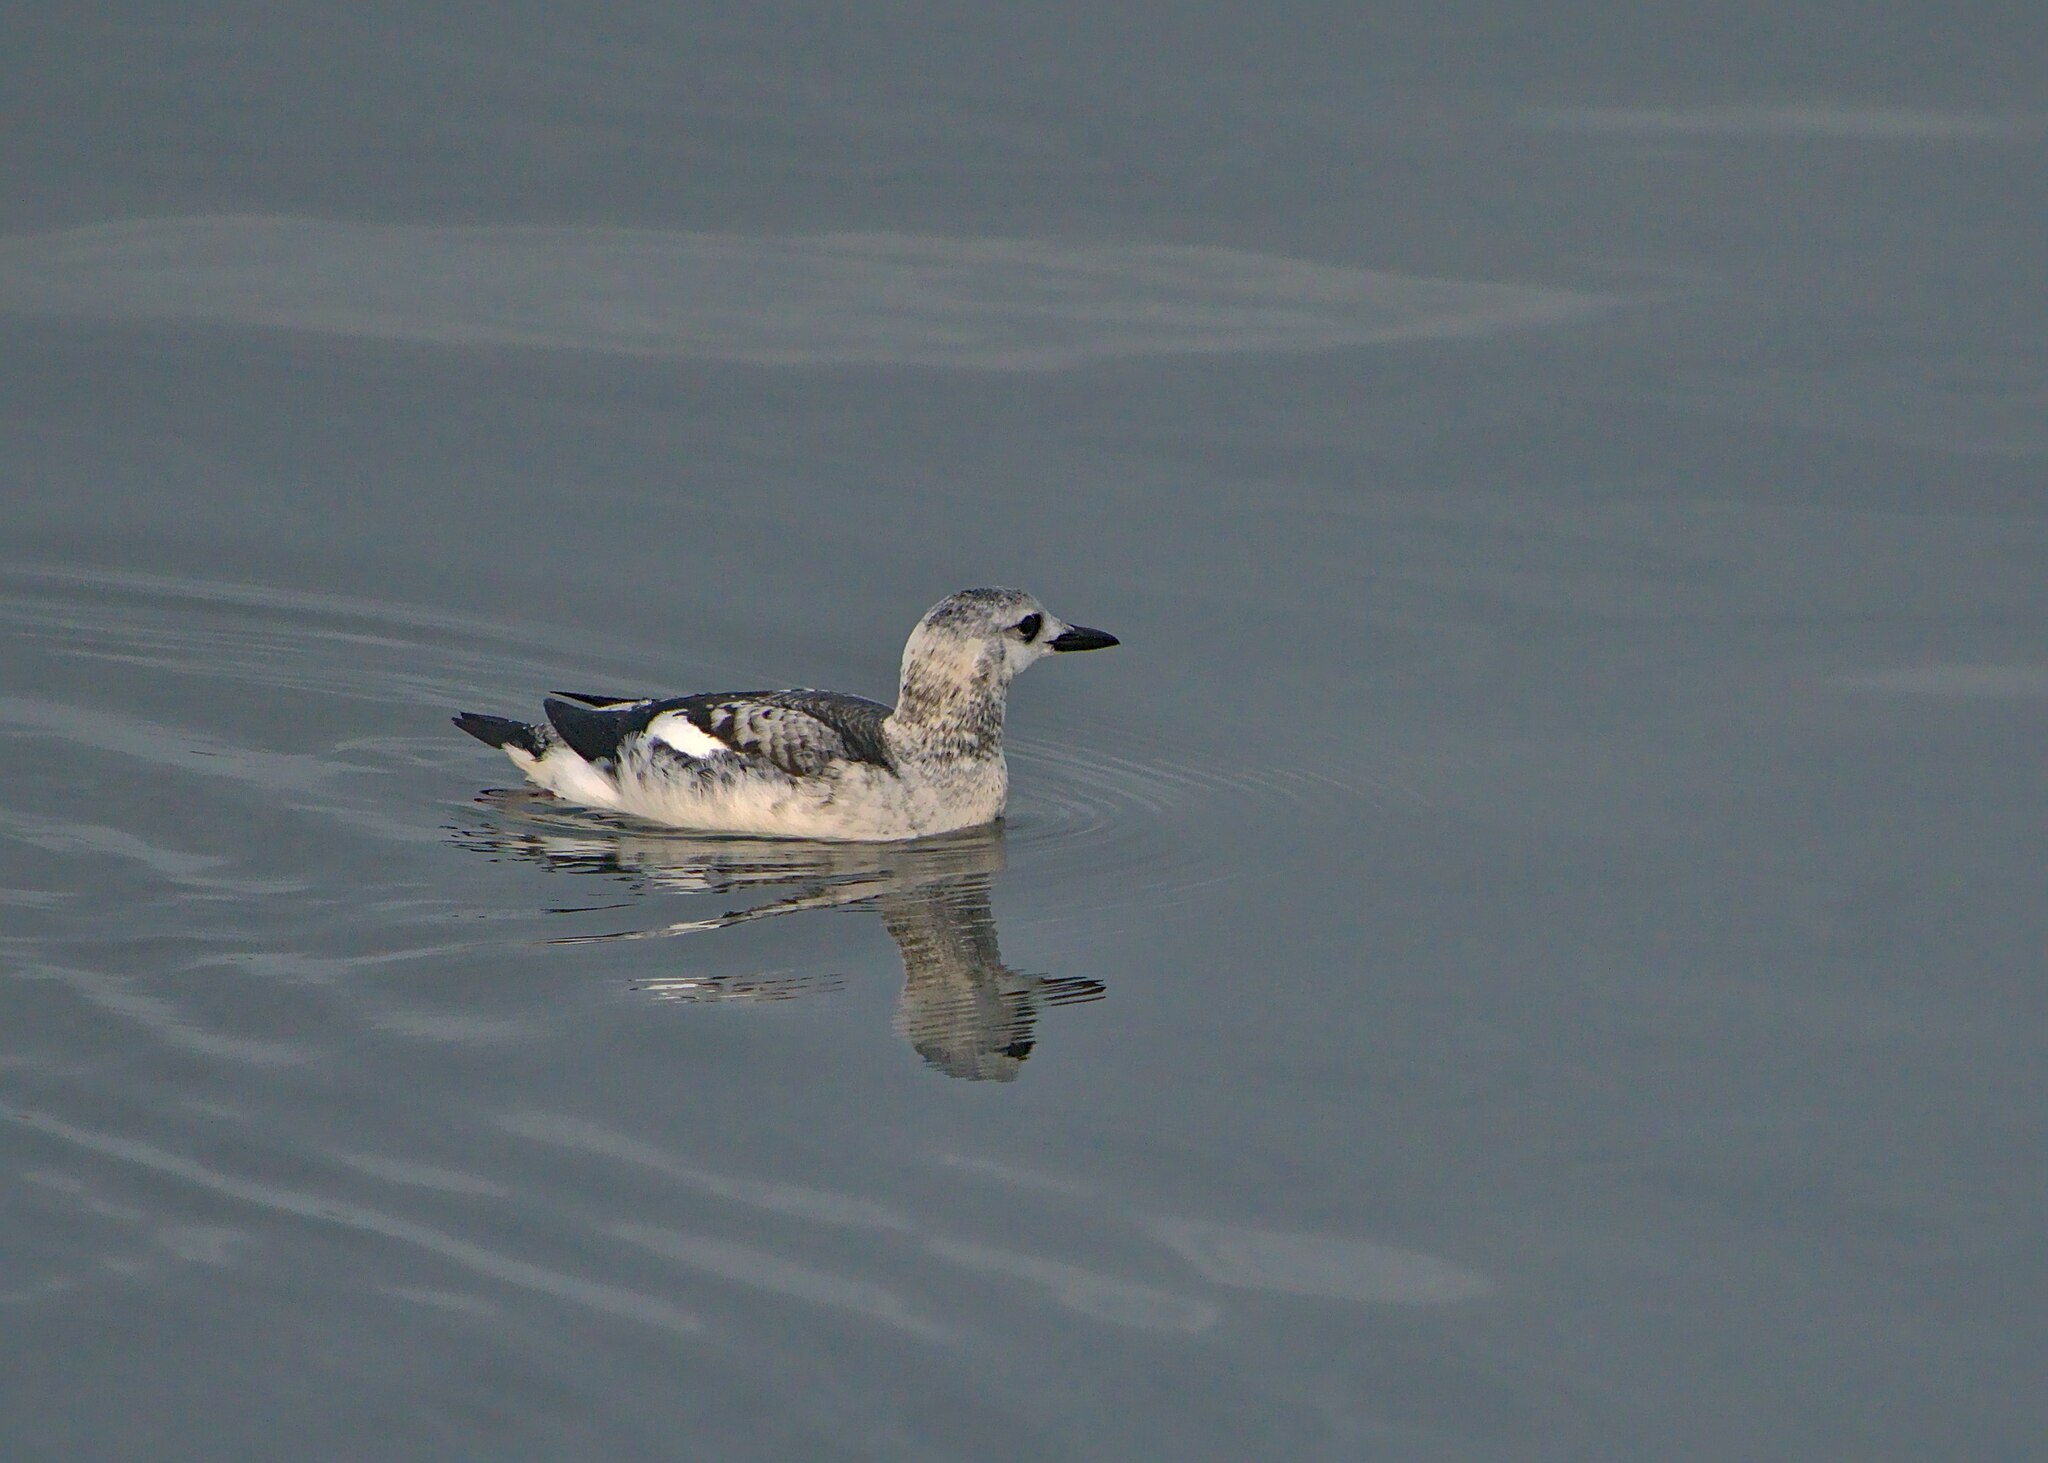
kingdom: Animalia
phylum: Chordata
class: Aves
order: Charadriiformes
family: Alcidae
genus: Cepphus
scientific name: Cepphus grylle
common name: Black guillemot
